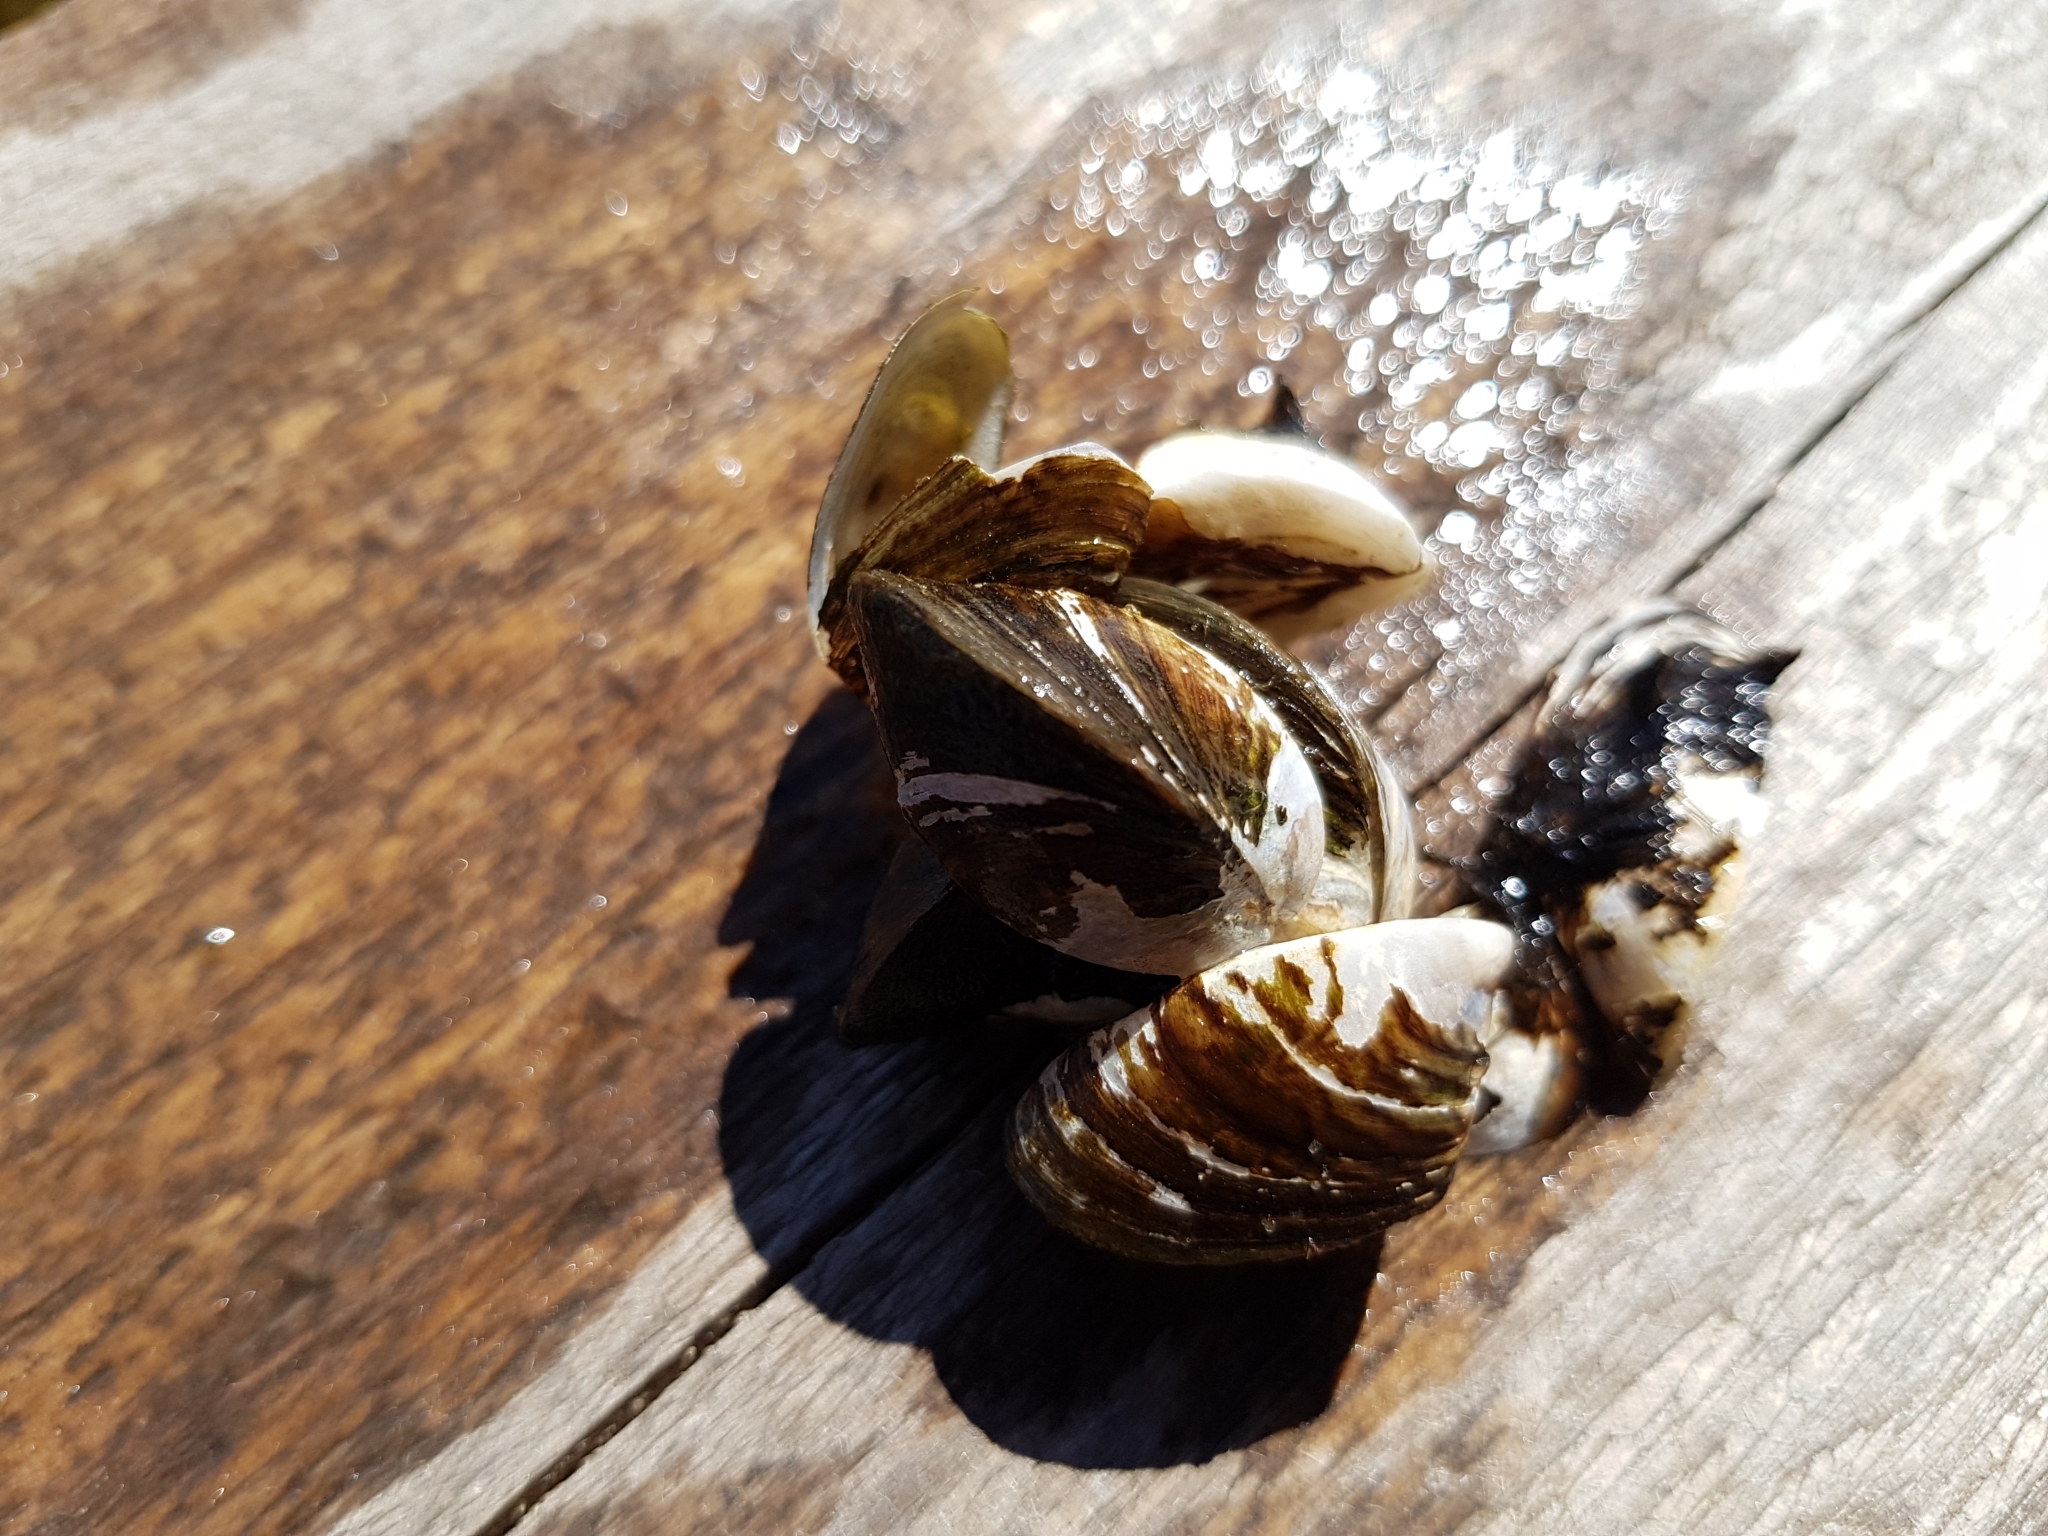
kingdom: Animalia
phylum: Mollusca
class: Bivalvia
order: Myida
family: Dreissenidae
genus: Dreissena
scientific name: Dreissena polymorpha
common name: Zebra mussel
